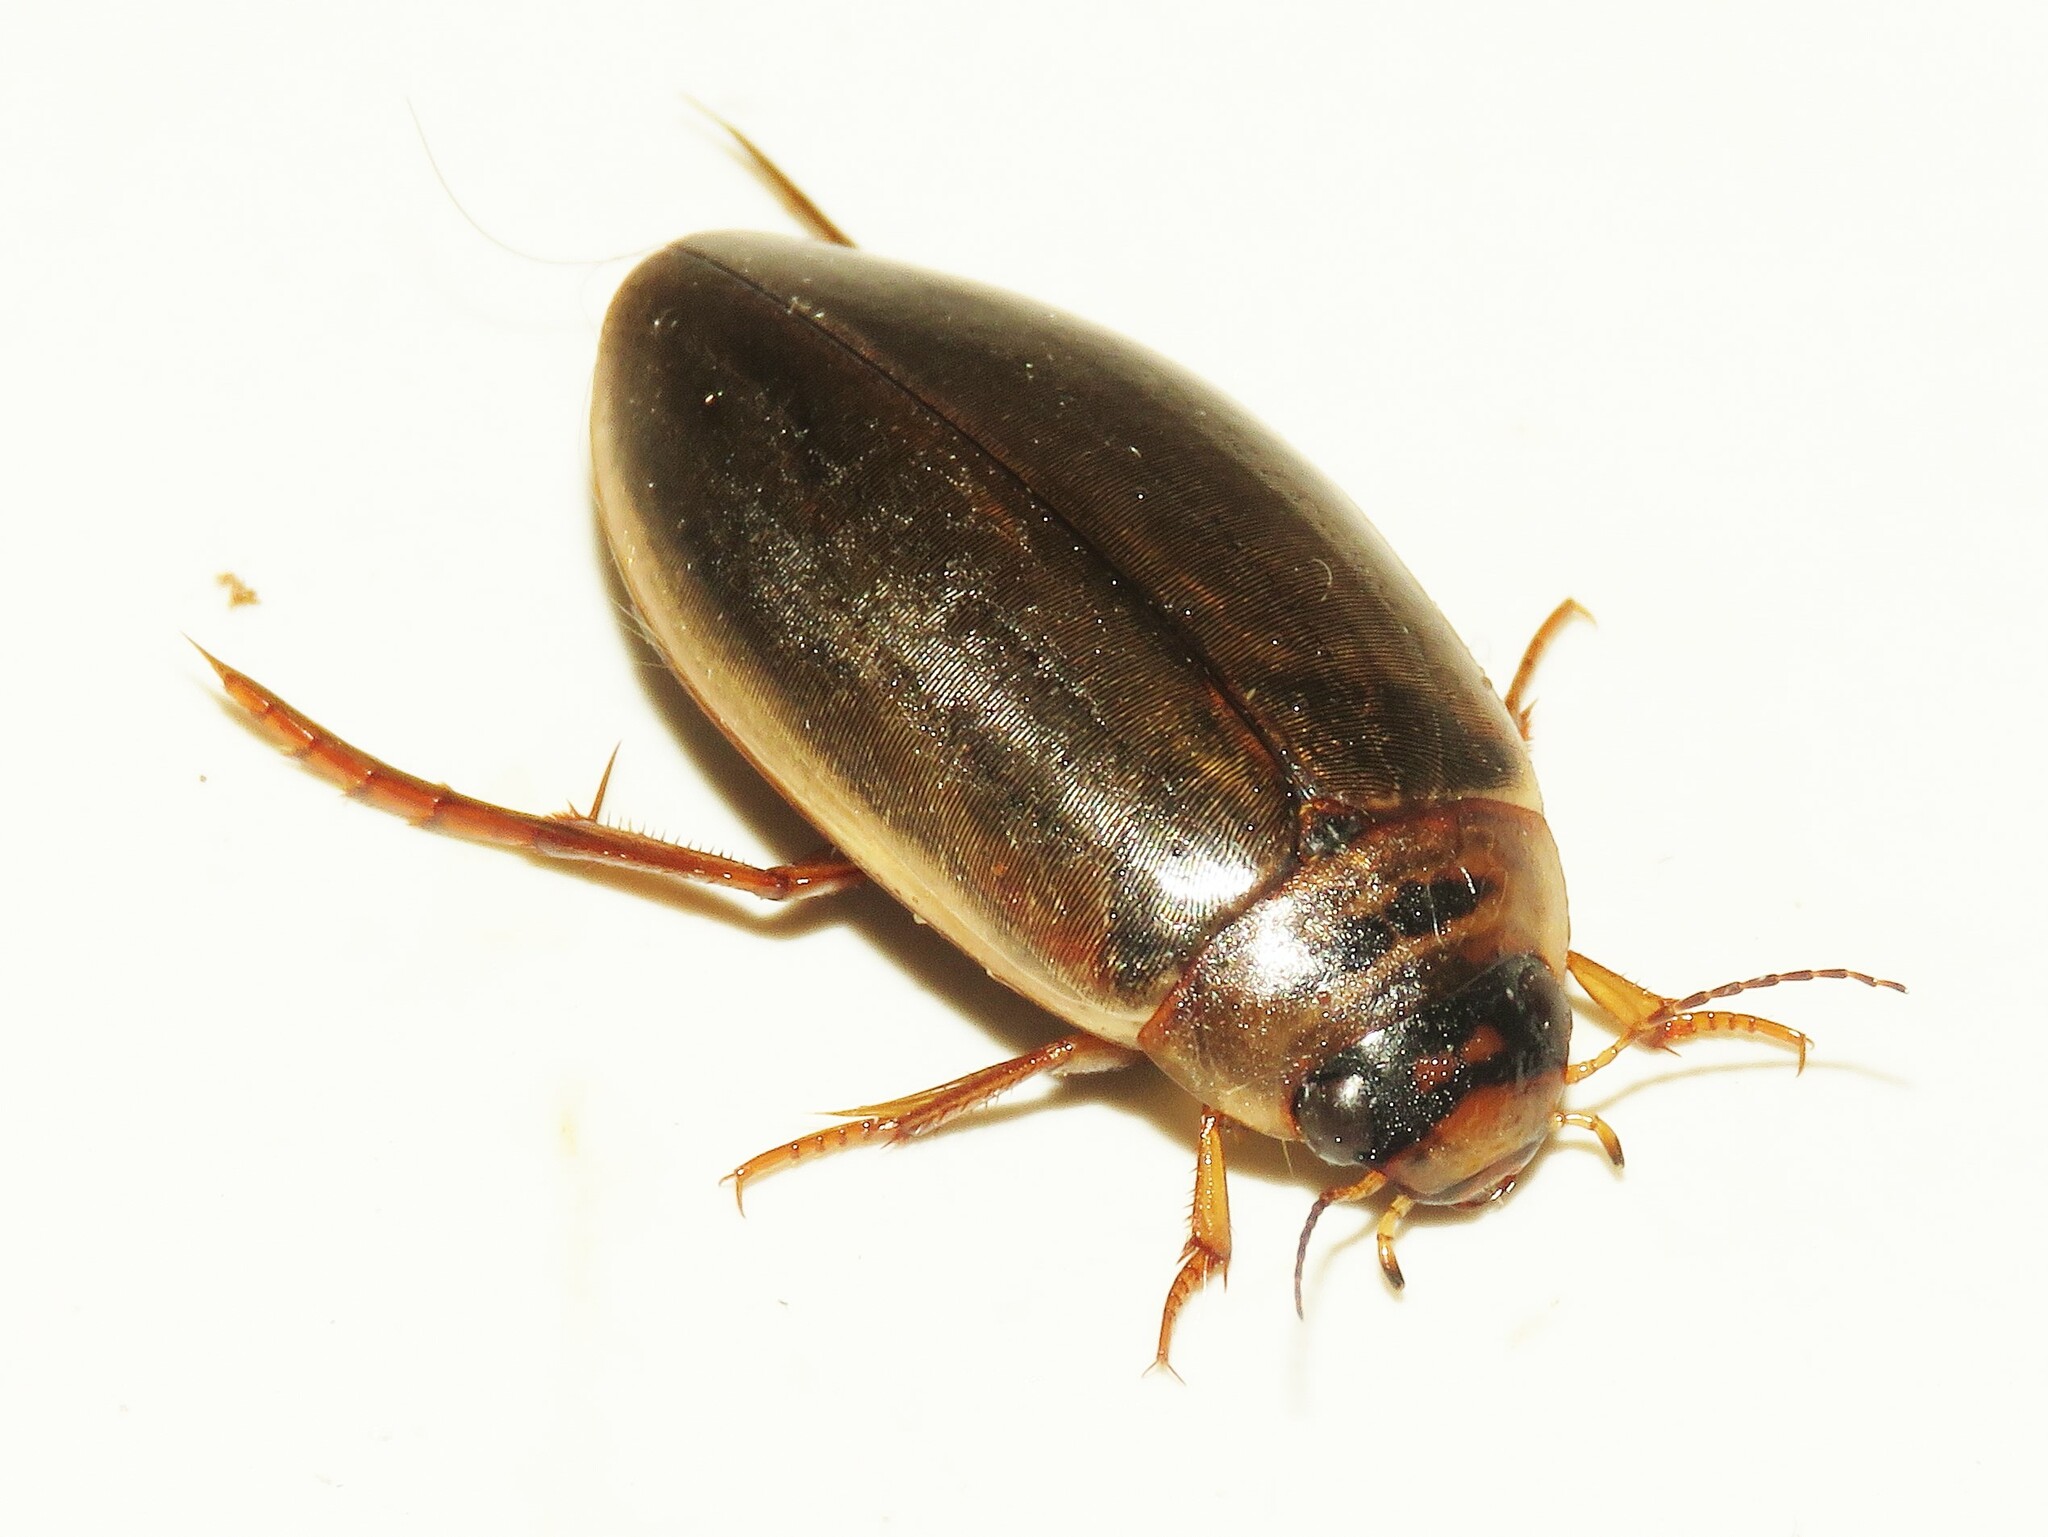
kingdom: Animalia
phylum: Arthropoda
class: Insecta
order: Coleoptera
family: Dytiscidae
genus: Colymbetes
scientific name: Colymbetes sculptilis
